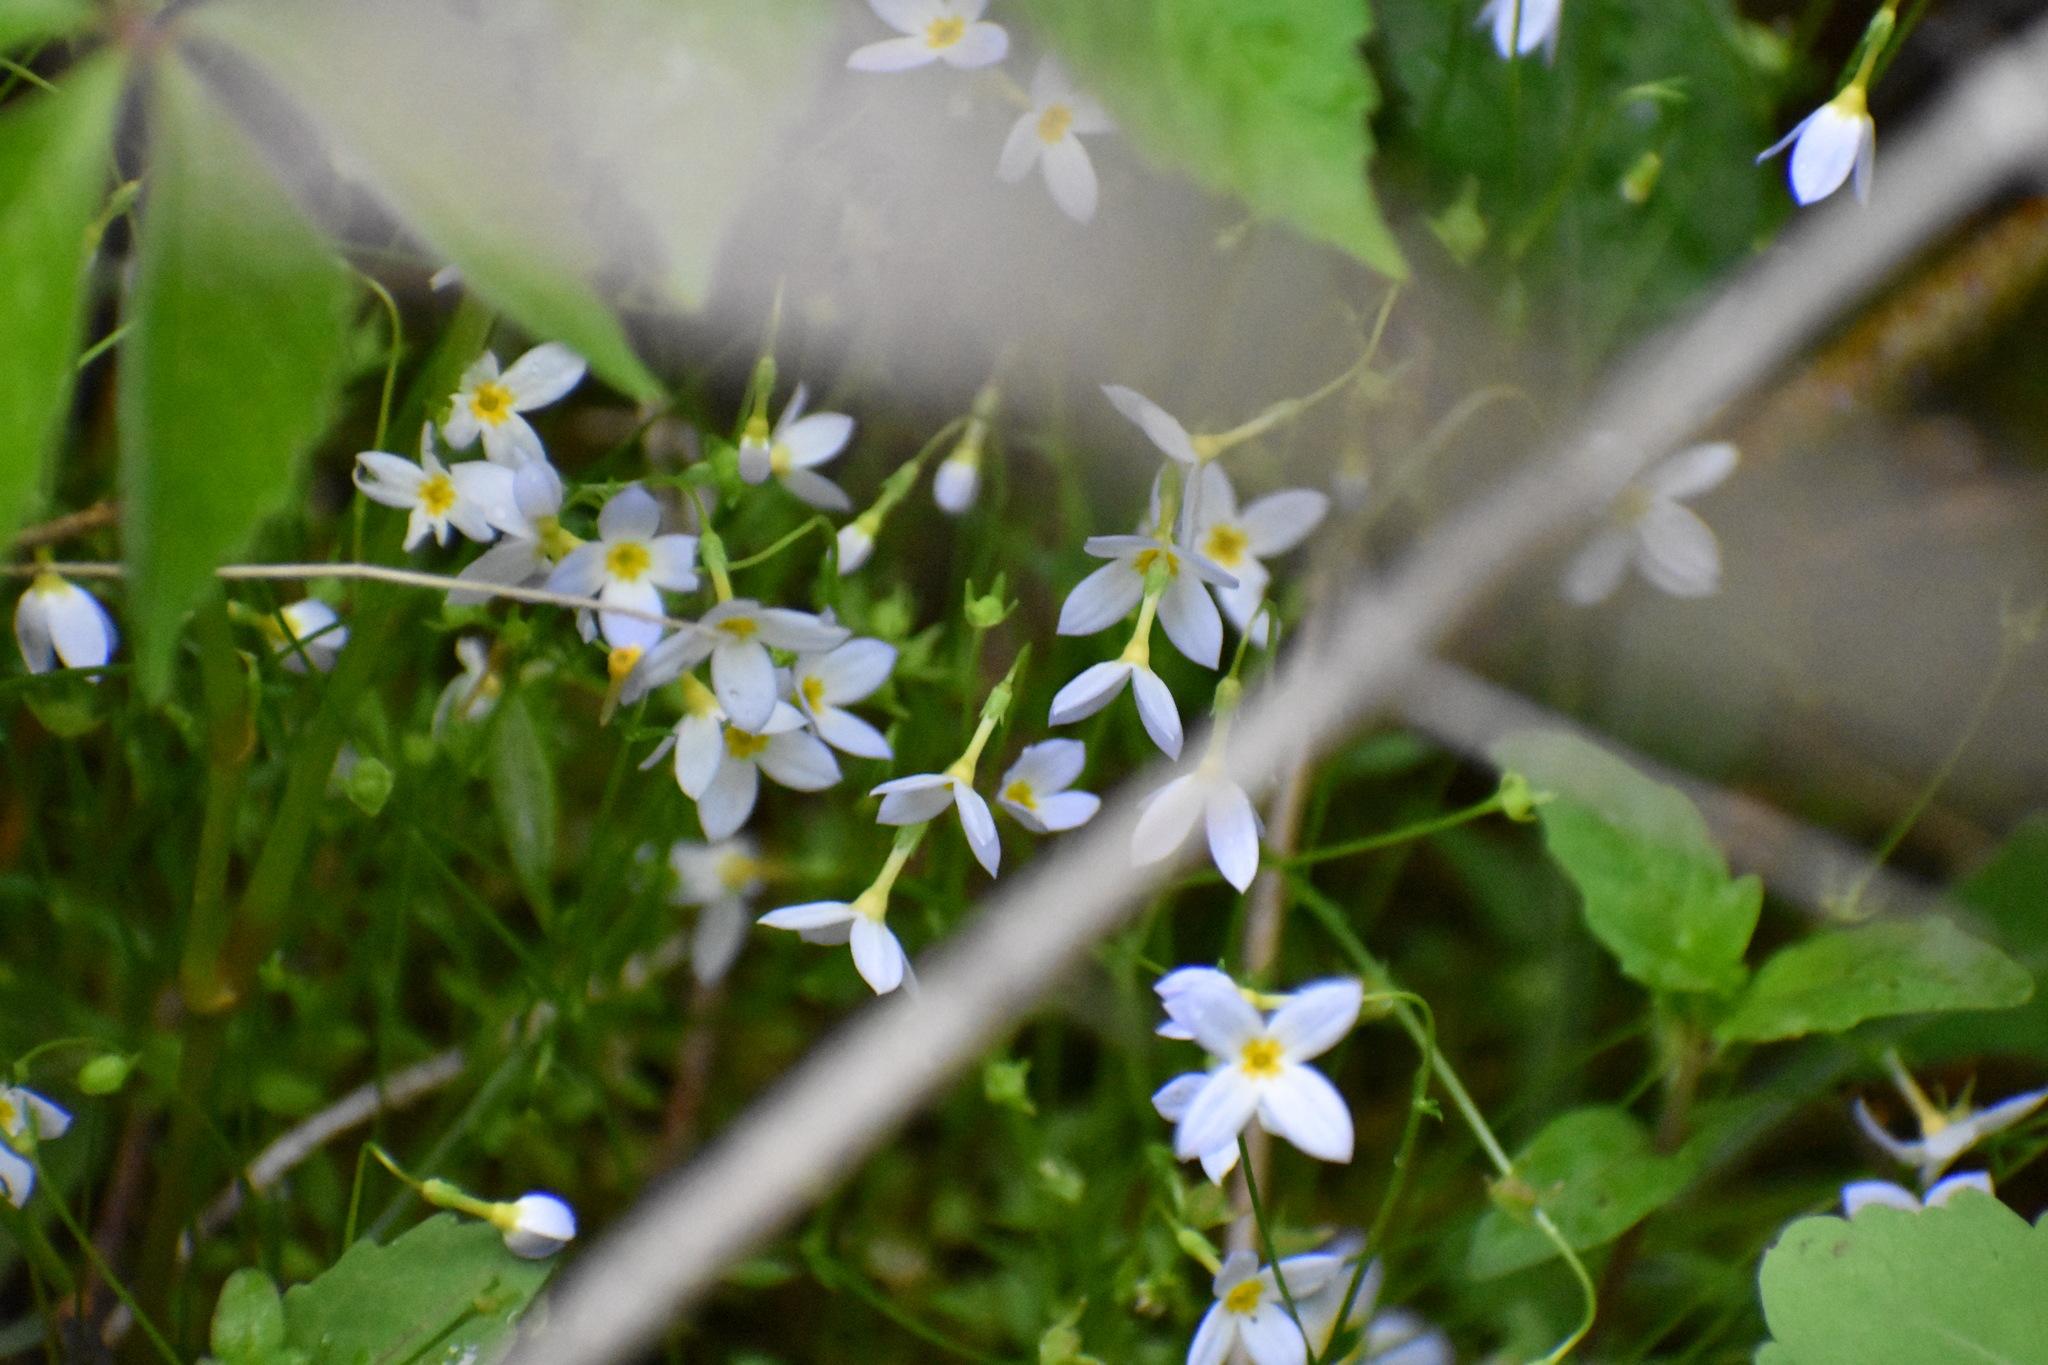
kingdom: Plantae
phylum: Tracheophyta
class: Magnoliopsida
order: Gentianales
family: Rubiaceae
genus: Houstonia
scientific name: Houstonia caerulea
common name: Bluets
